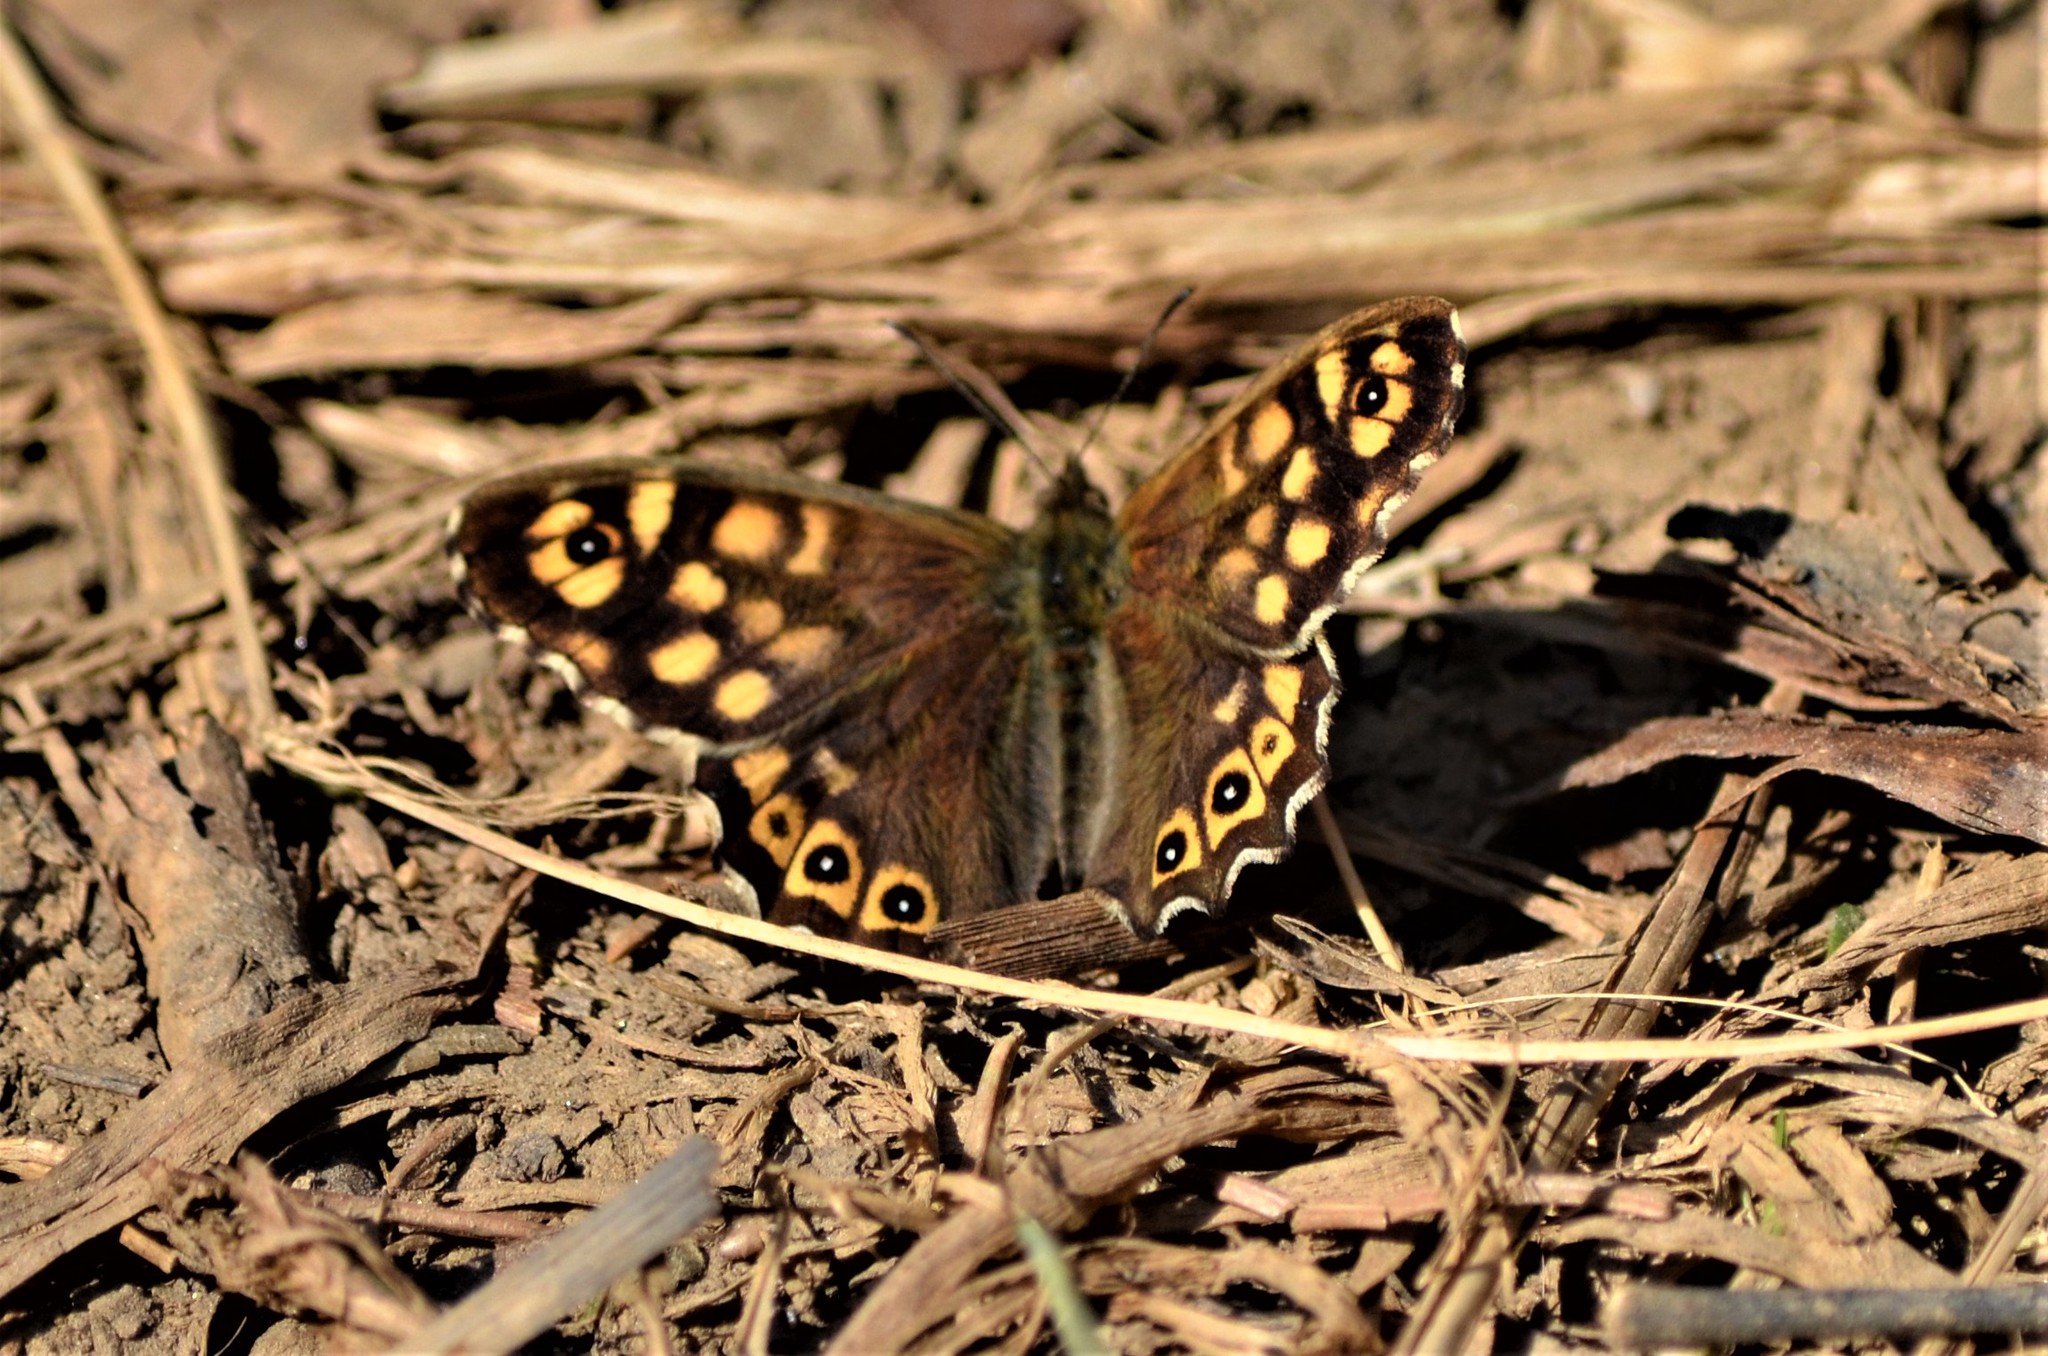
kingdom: Animalia
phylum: Arthropoda
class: Insecta
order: Lepidoptera
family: Nymphalidae
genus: Pararge
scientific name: Pararge aegeria
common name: Speckled wood
